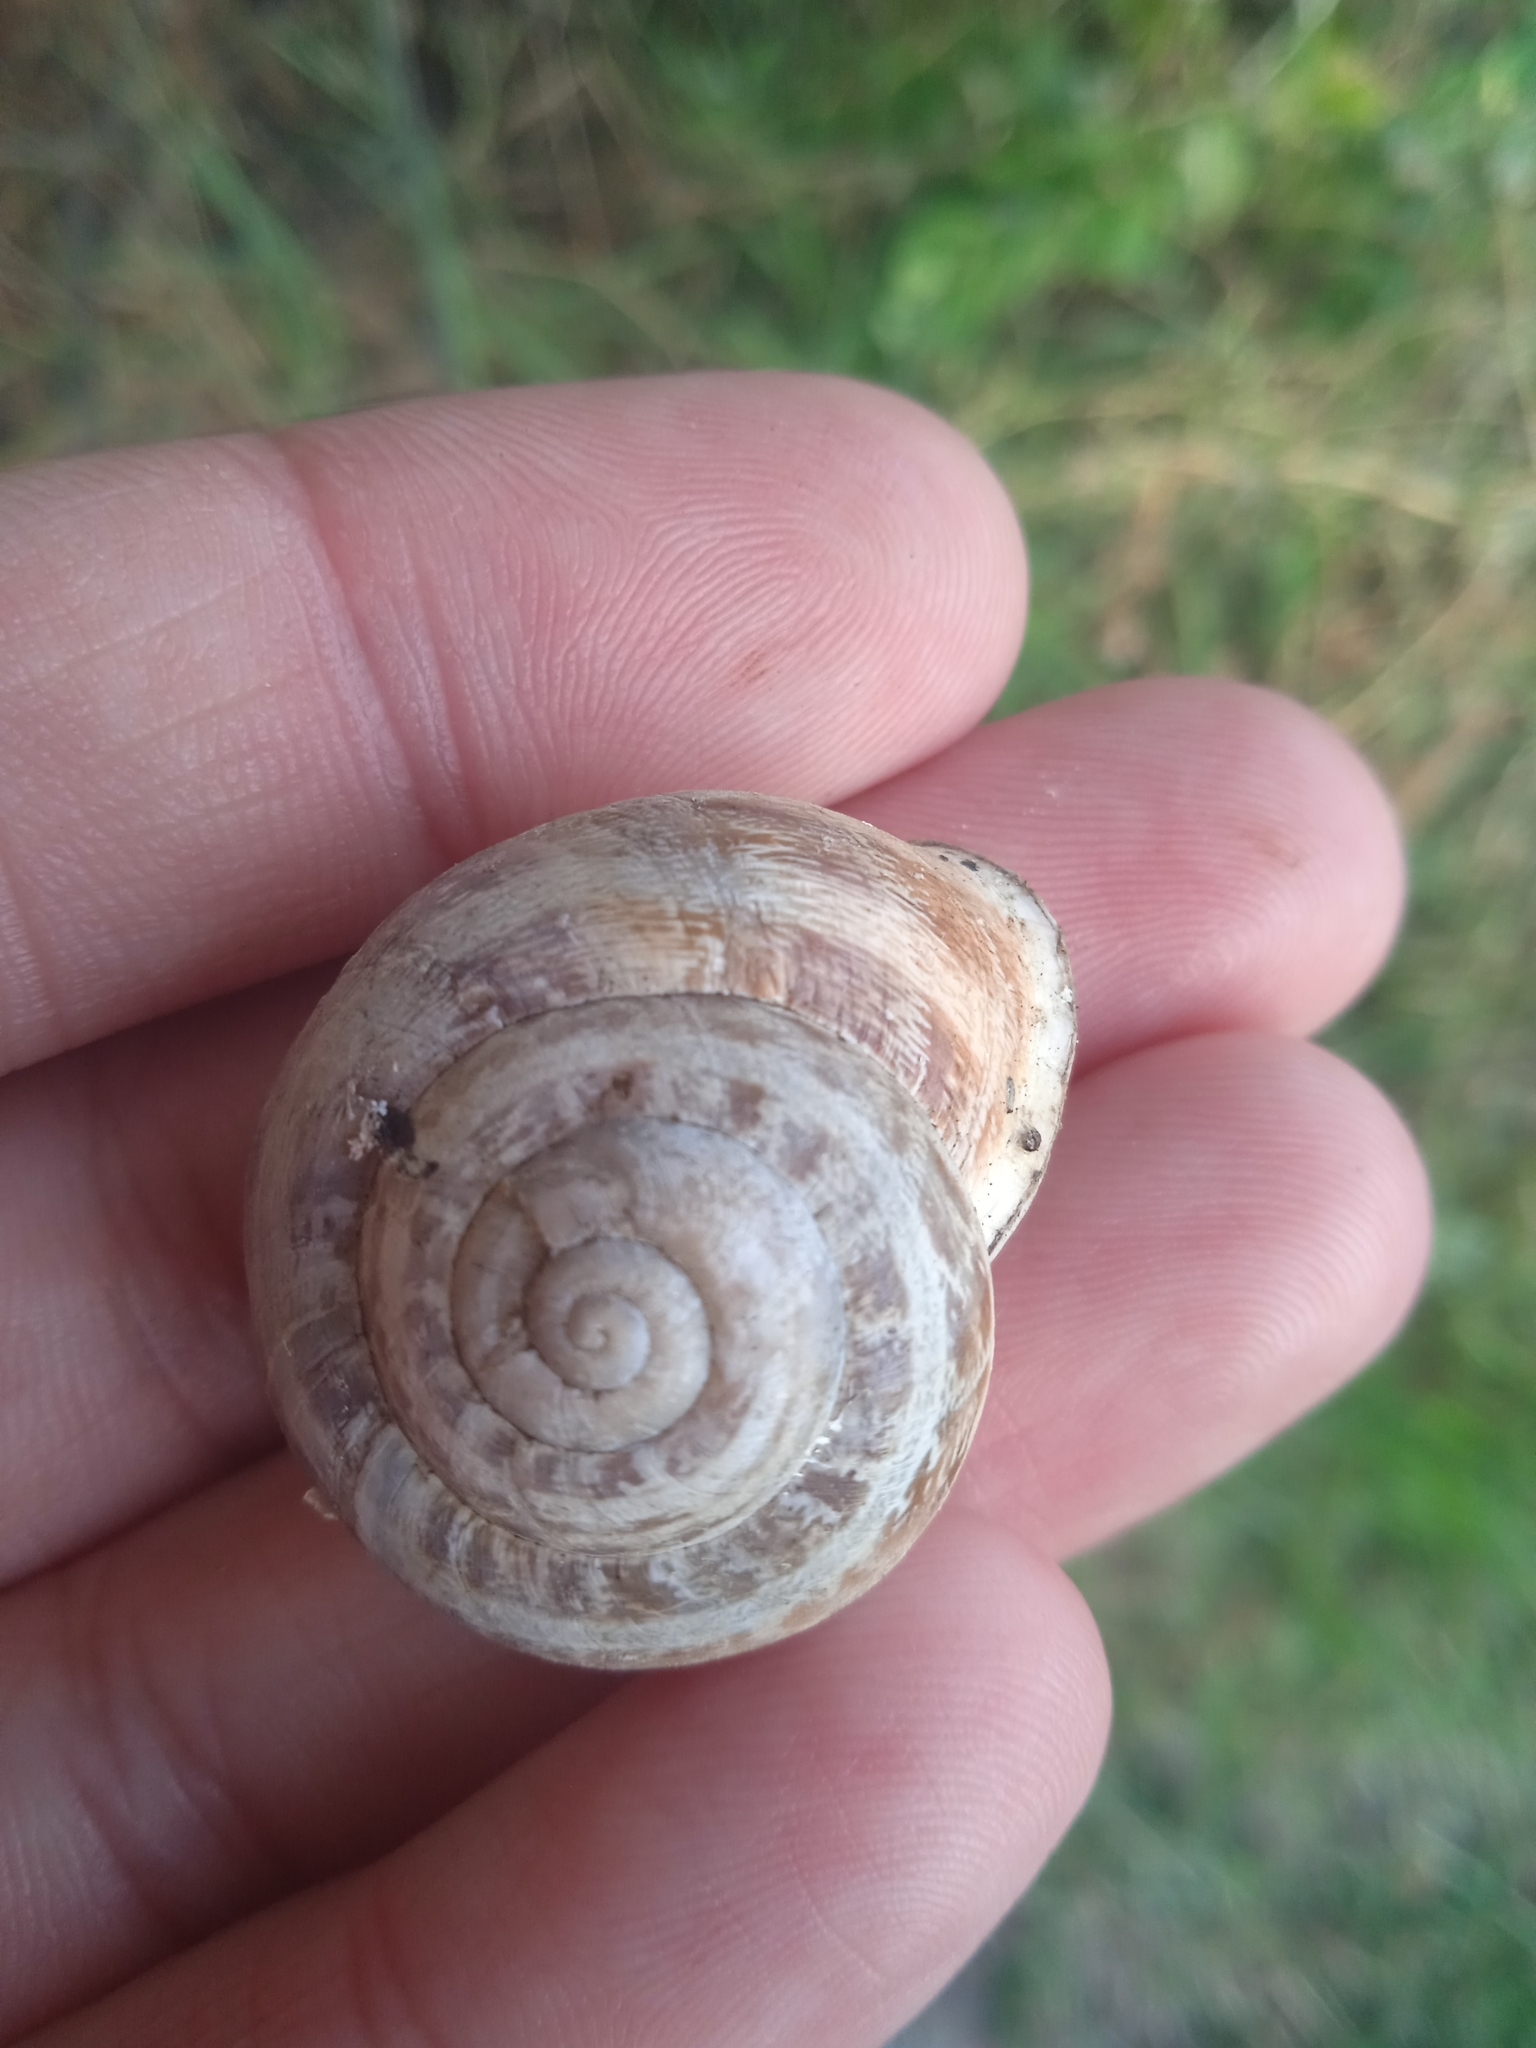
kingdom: Animalia
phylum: Mollusca
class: Gastropoda
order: Stylommatophora
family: Helicidae
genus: Eobania
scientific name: Eobania vermiculata
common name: Chocolateband snail
